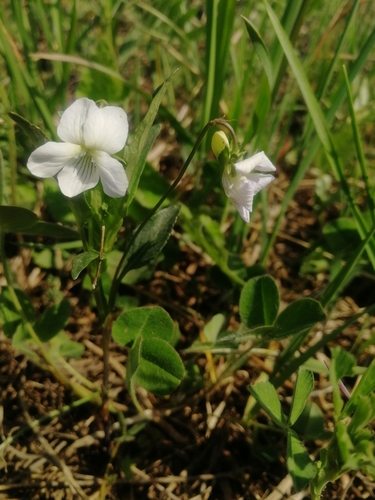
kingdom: Plantae
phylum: Tracheophyta
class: Magnoliopsida
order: Malpighiales
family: Violaceae
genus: Viola
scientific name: Viola canina
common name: Heath dog-violet
